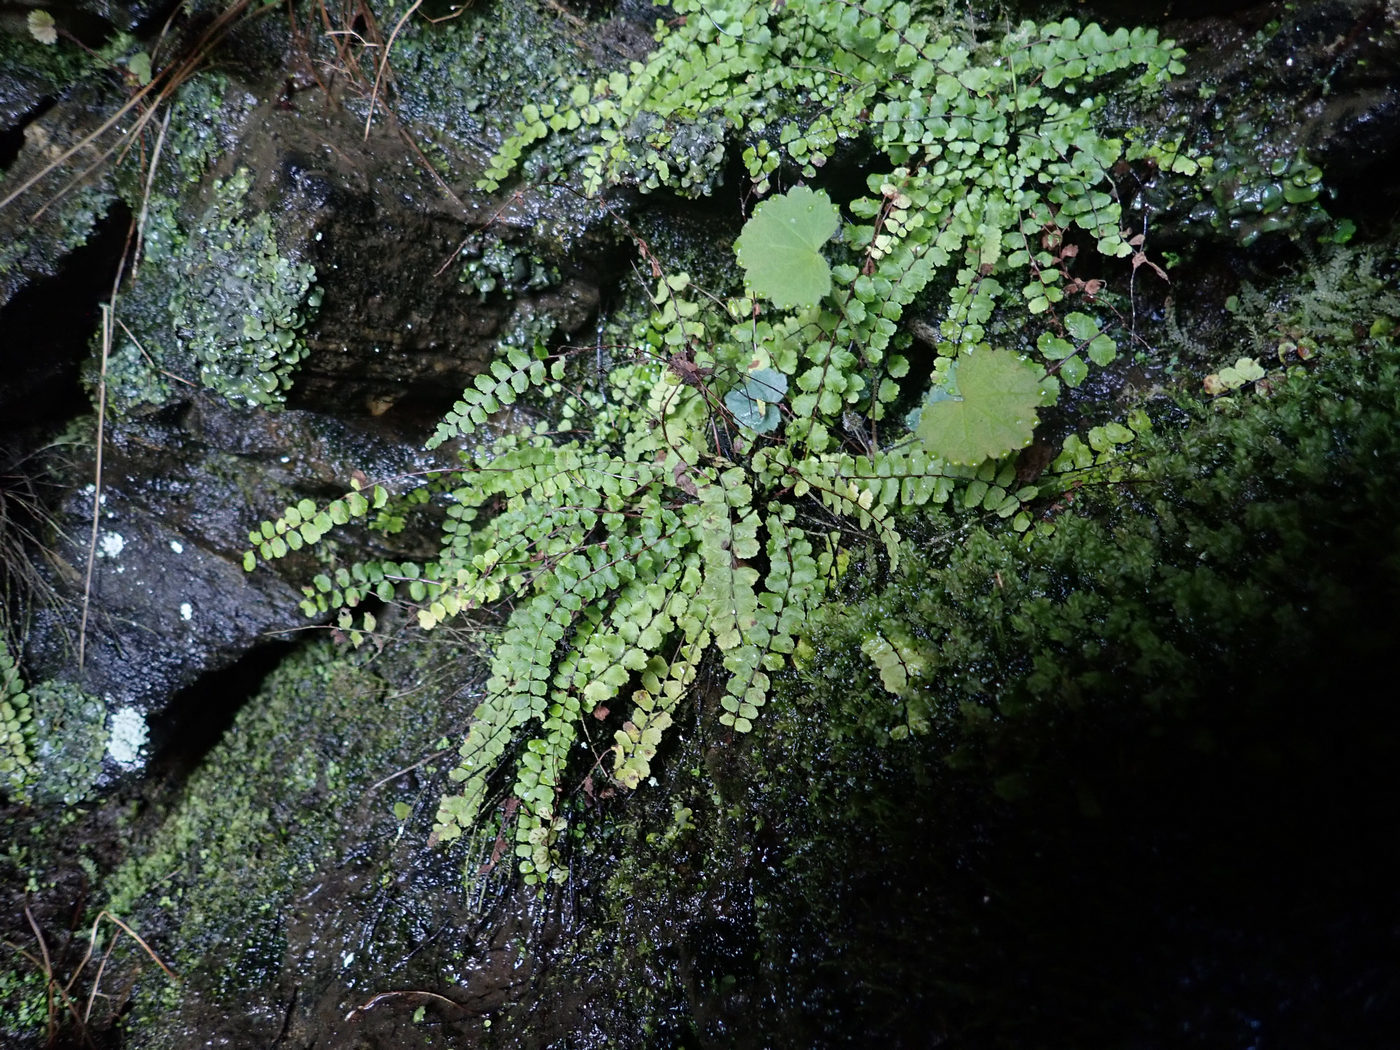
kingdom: Plantae
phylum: Tracheophyta
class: Polypodiopsida
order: Polypodiales
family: Aspleniaceae
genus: Asplenium
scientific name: Asplenium trichomanes
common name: Maidenhair spleenwort
